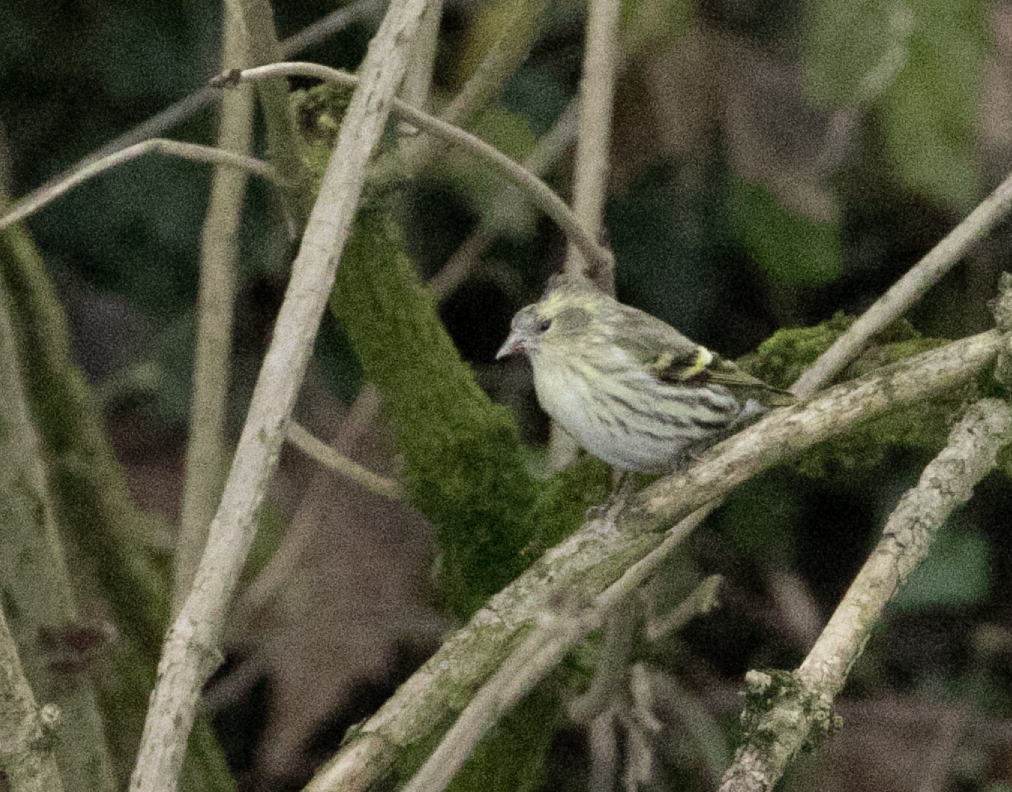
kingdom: Animalia
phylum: Chordata
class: Aves
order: Passeriformes
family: Fringillidae
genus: Spinus
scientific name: Spinus spinus
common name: Eurasian siskin
